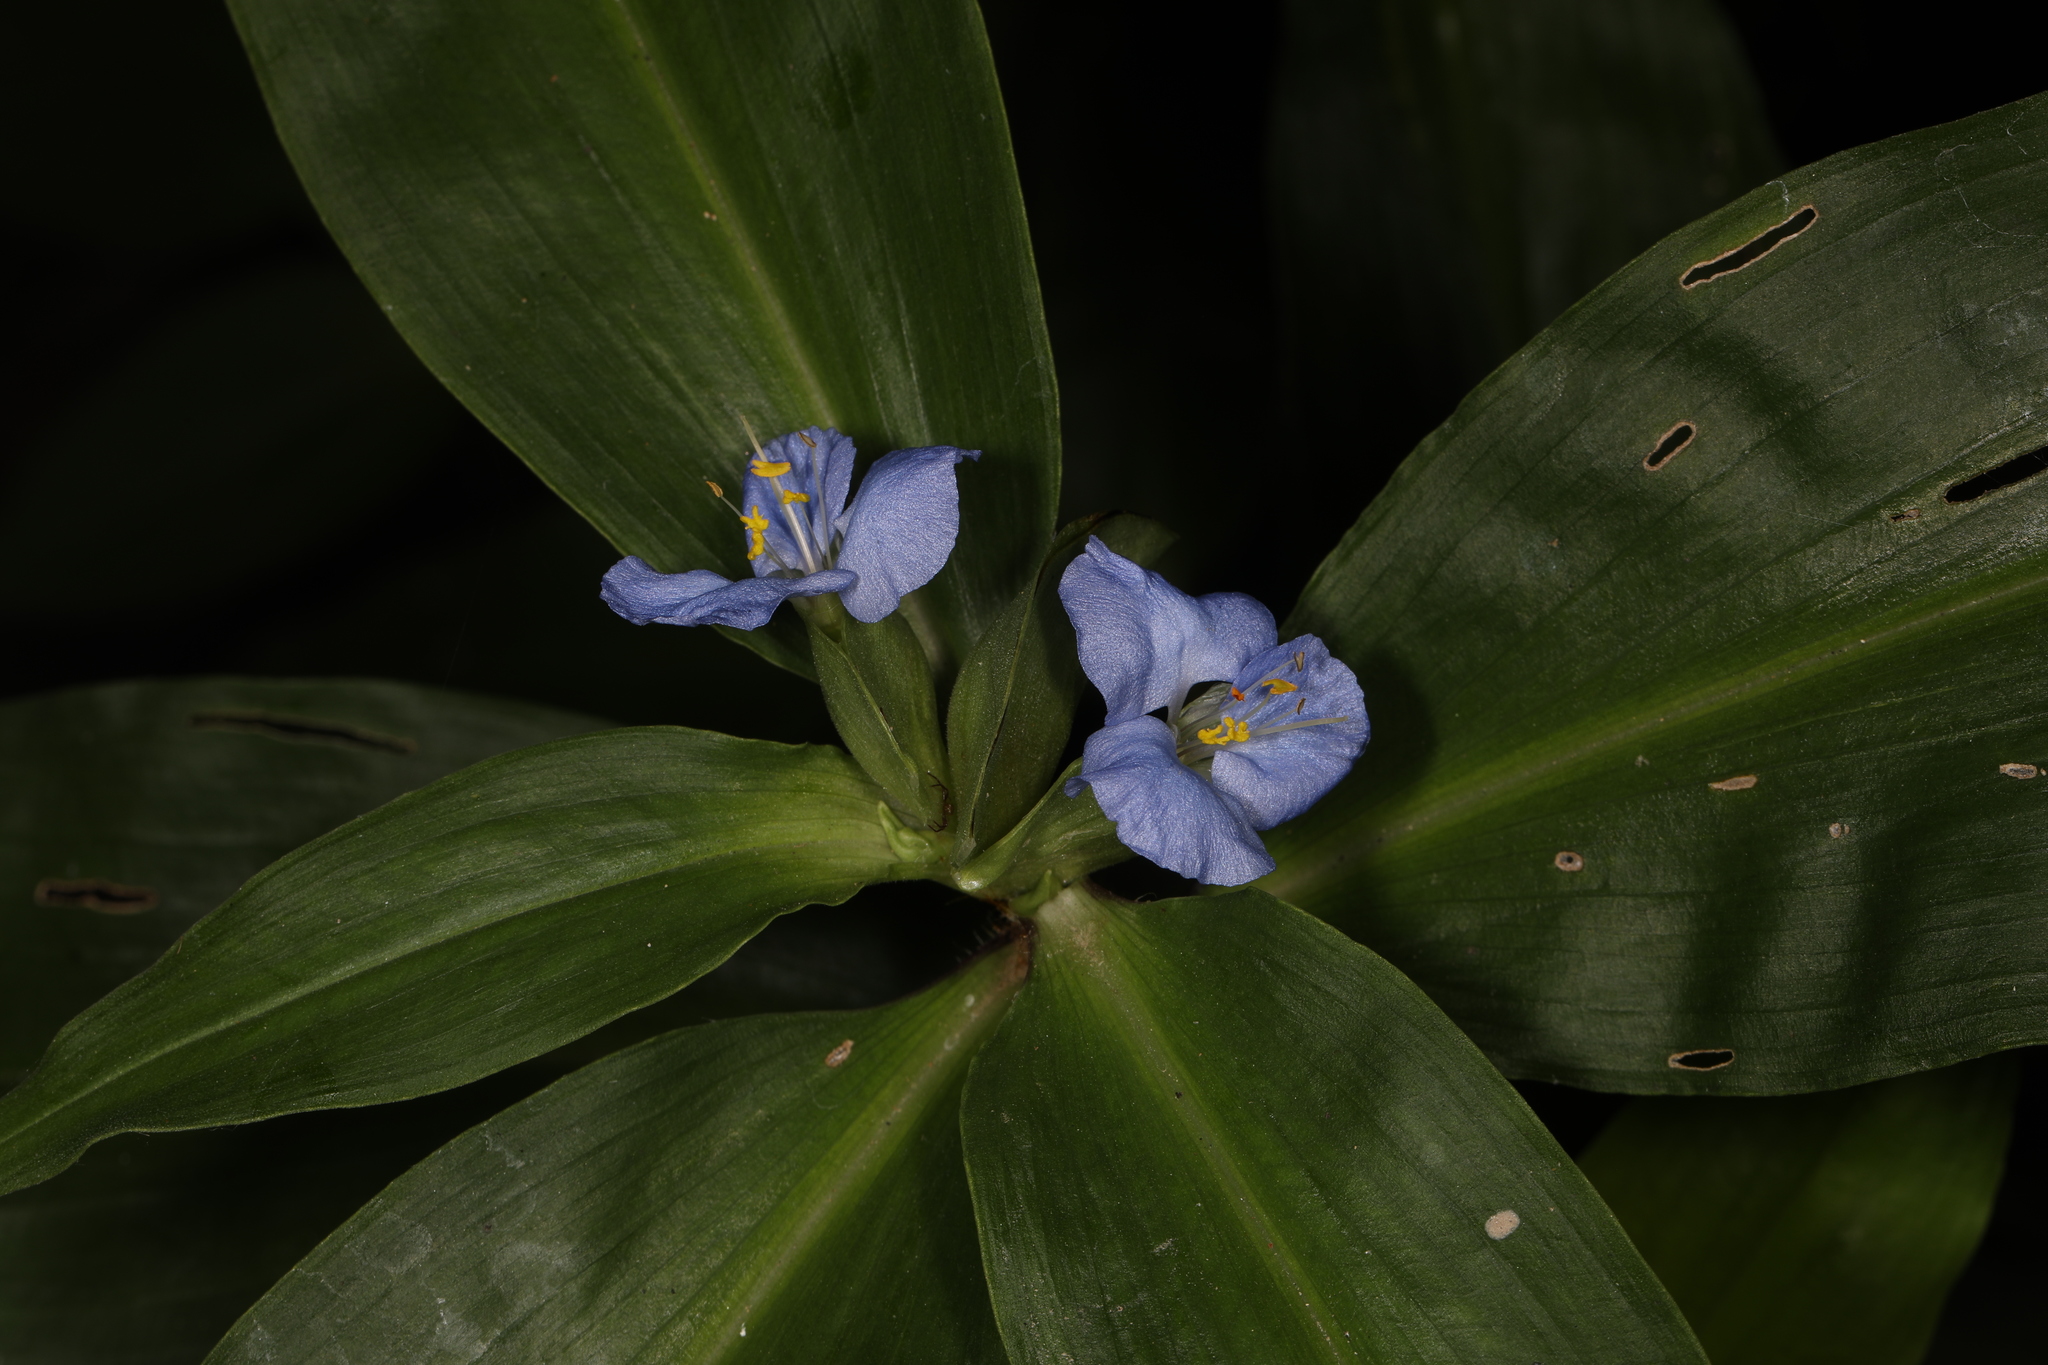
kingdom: Plantae
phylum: Tracheophyta
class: Liliopsida
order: Commelinales
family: Commelinaceae
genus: Commelina
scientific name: Commelina virginica
